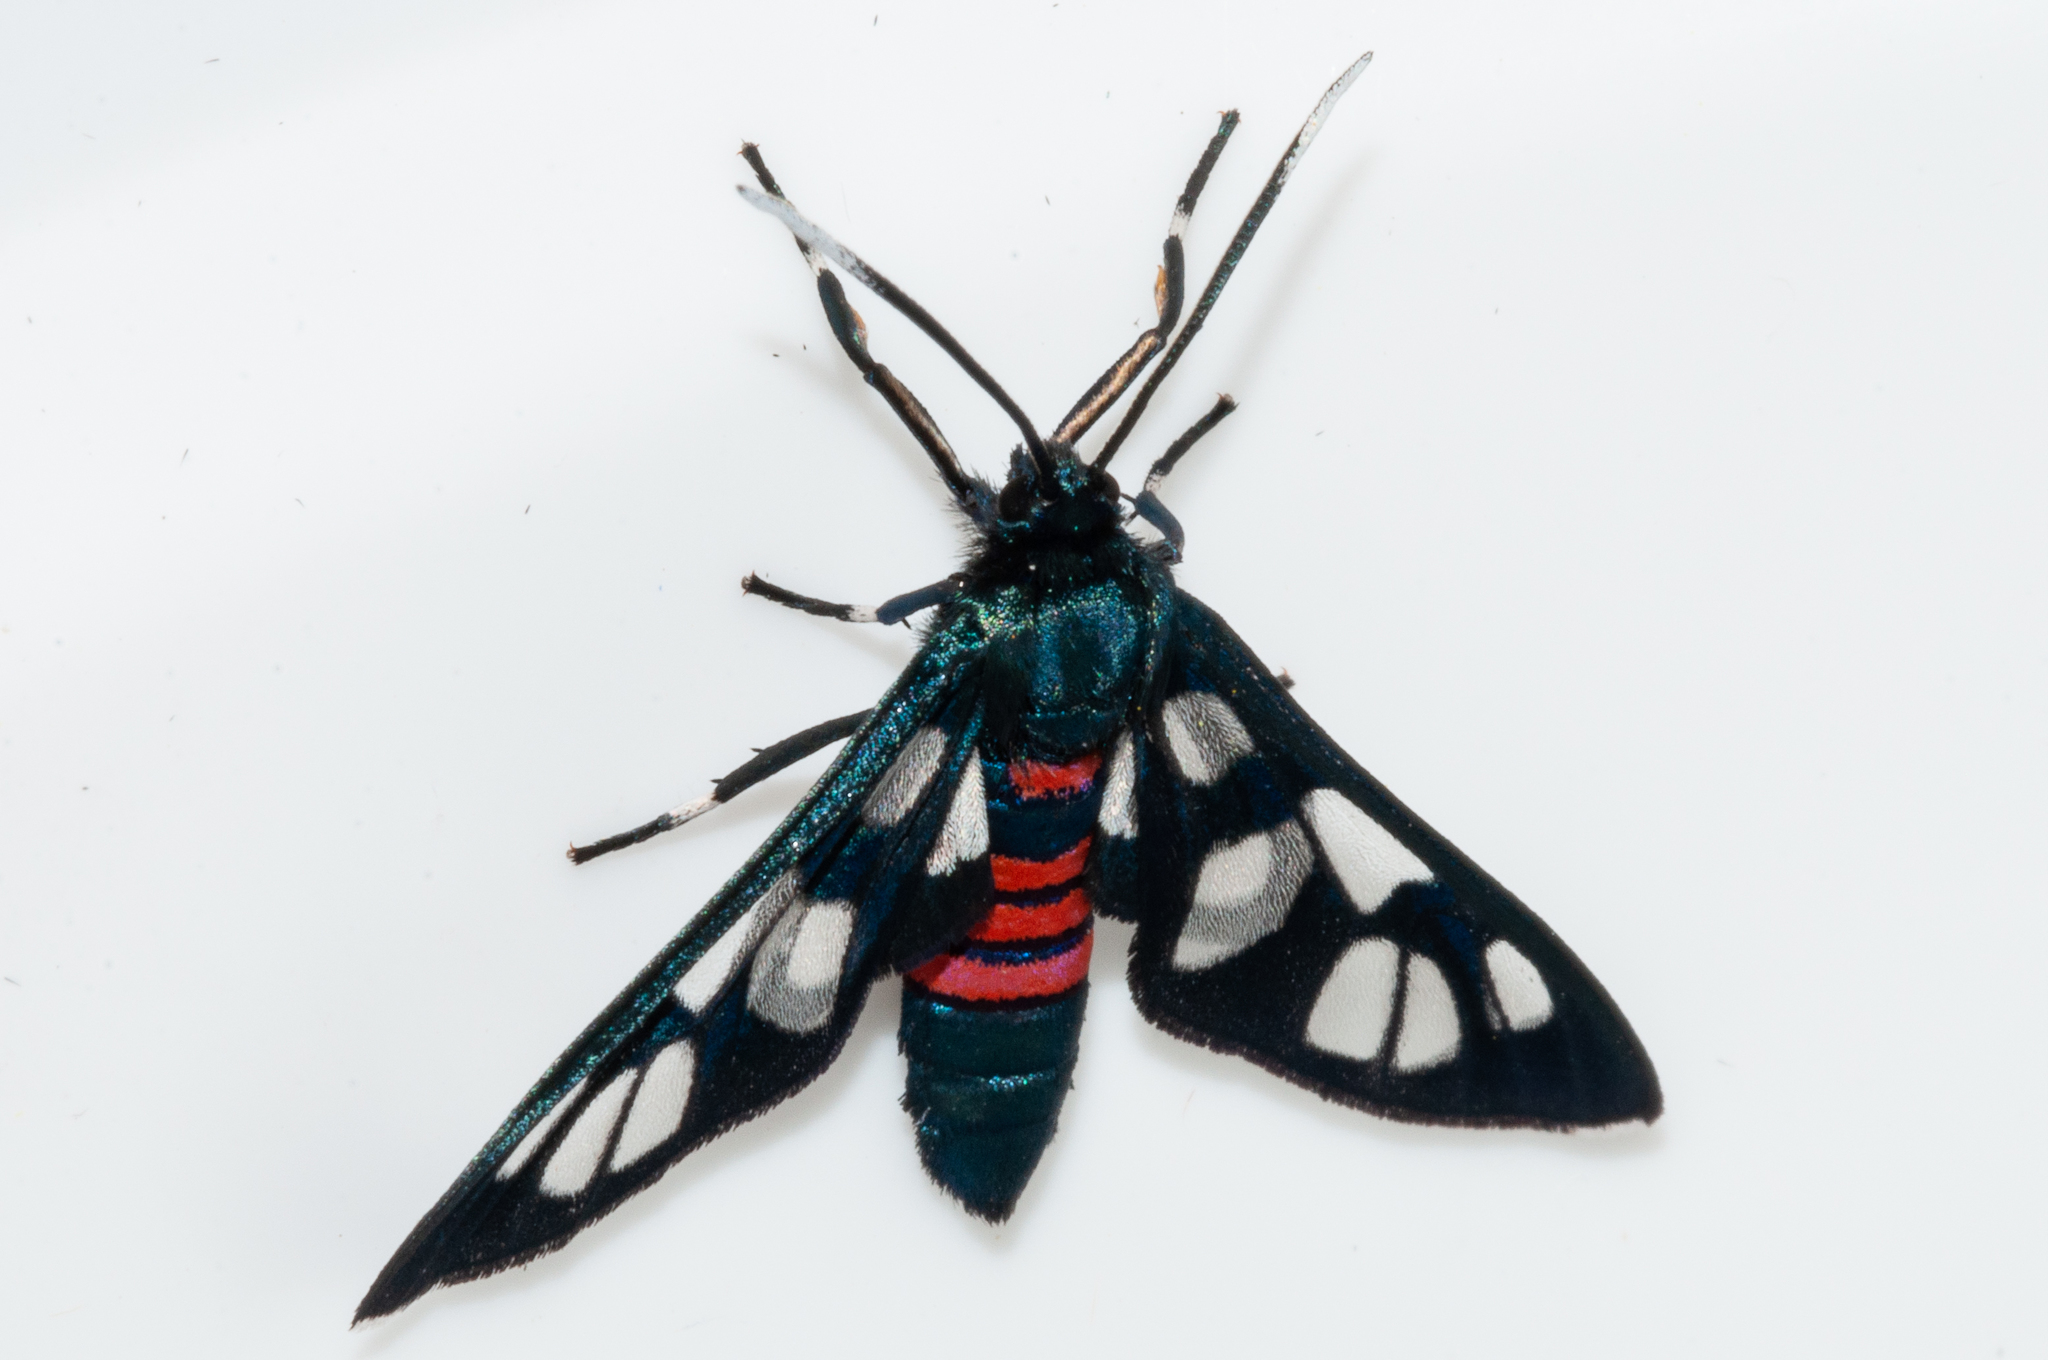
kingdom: Animalia
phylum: Arthropoda
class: Insecta
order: Lepidoptera
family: Erebidae
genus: Amata
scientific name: Amata cerbera
